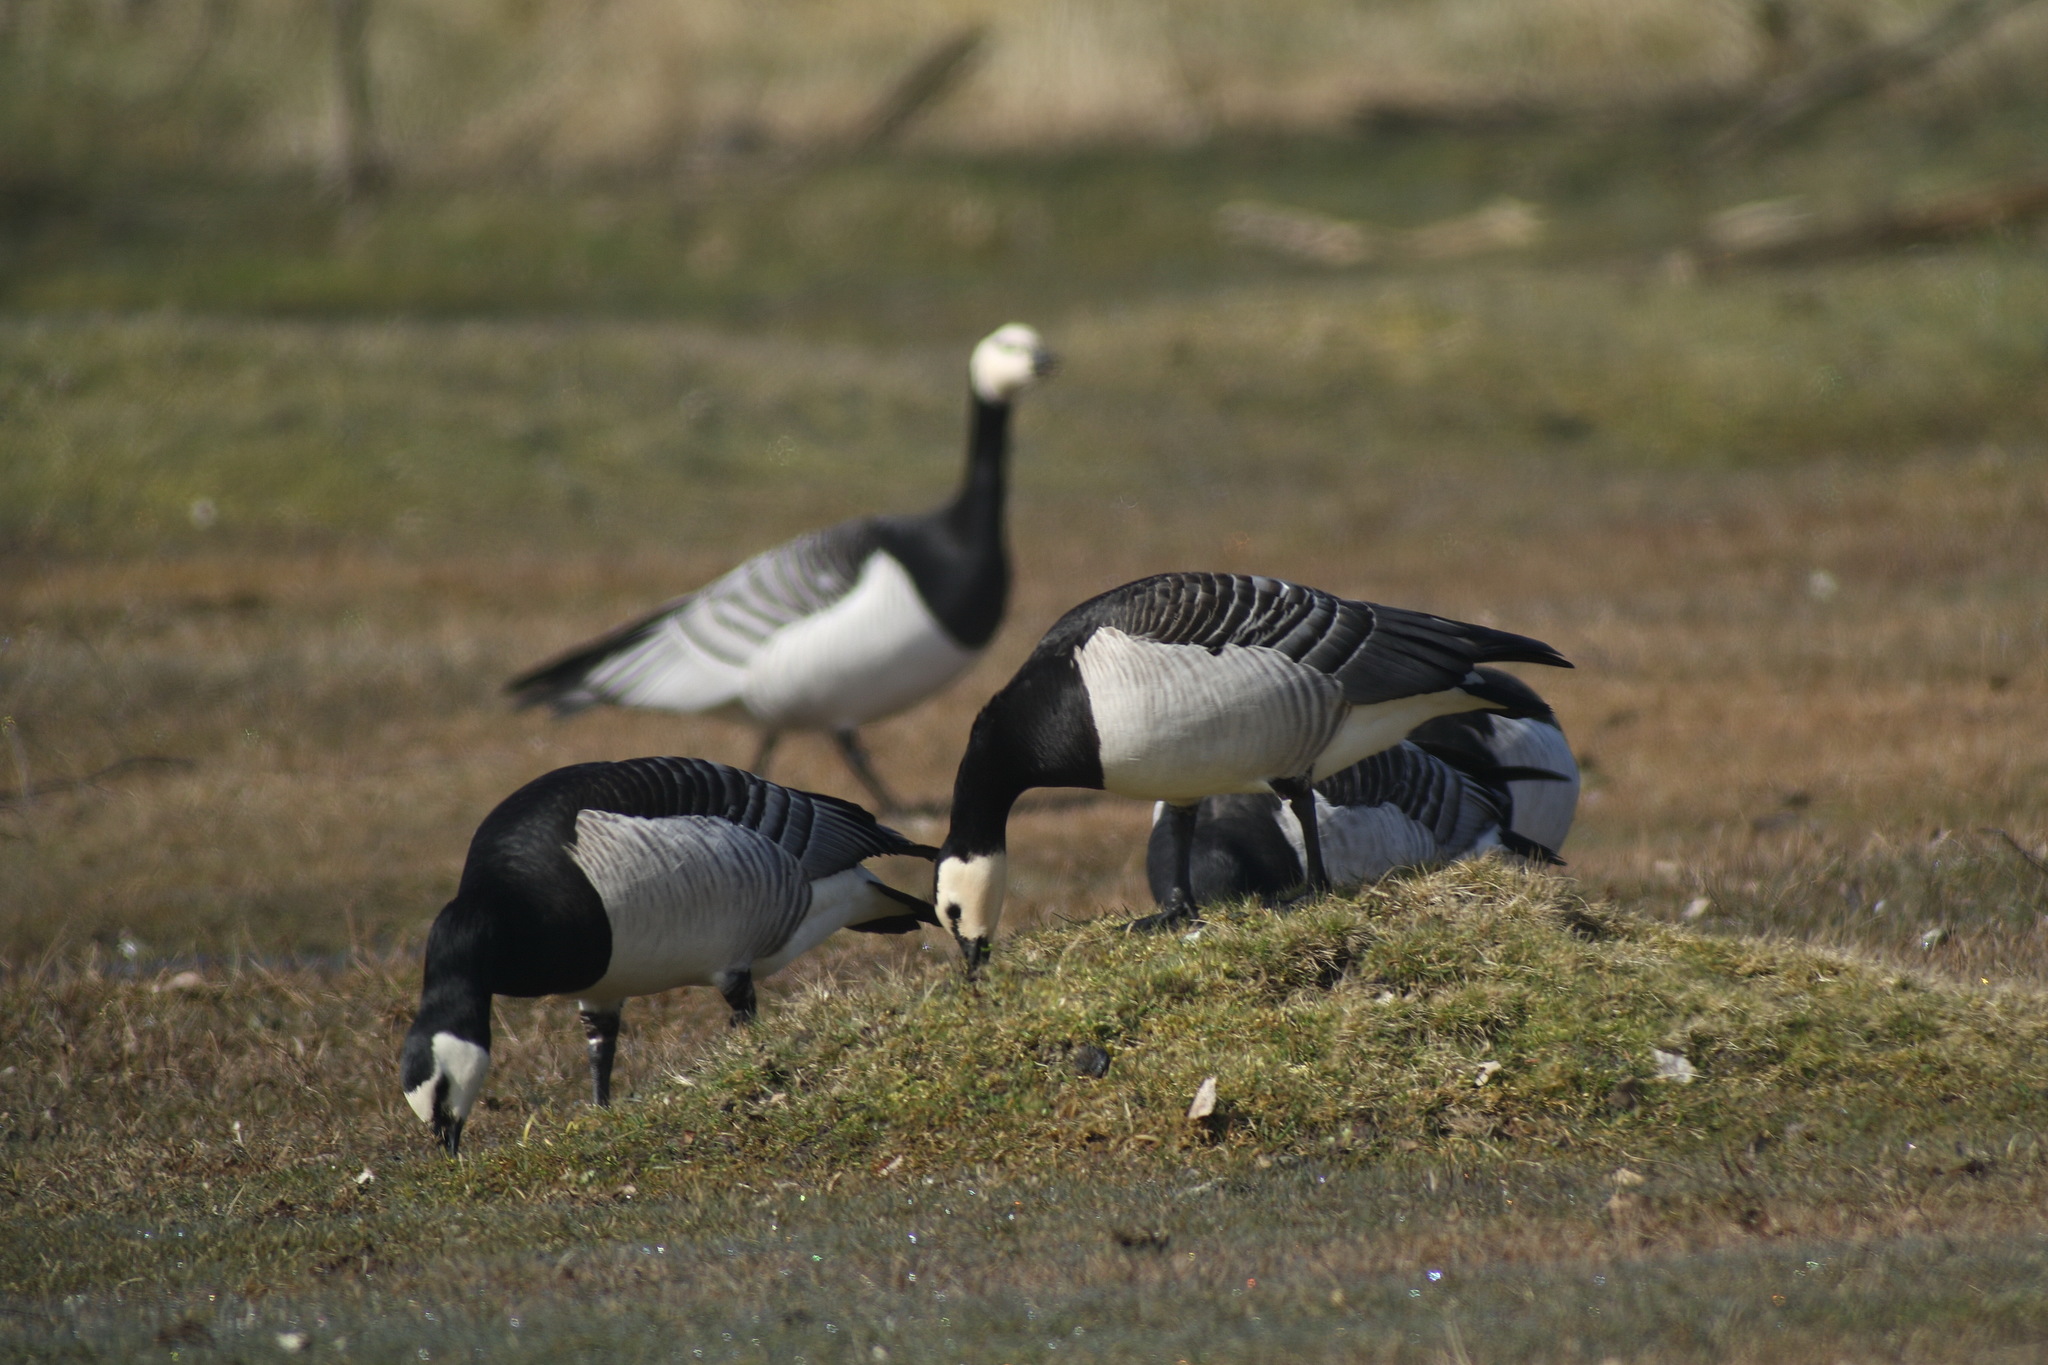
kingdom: Animalia
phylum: Chordata
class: Aves
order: Anseriformes
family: Anatidae
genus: Branta
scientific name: Branta leucopsis
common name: Barnacle goose
